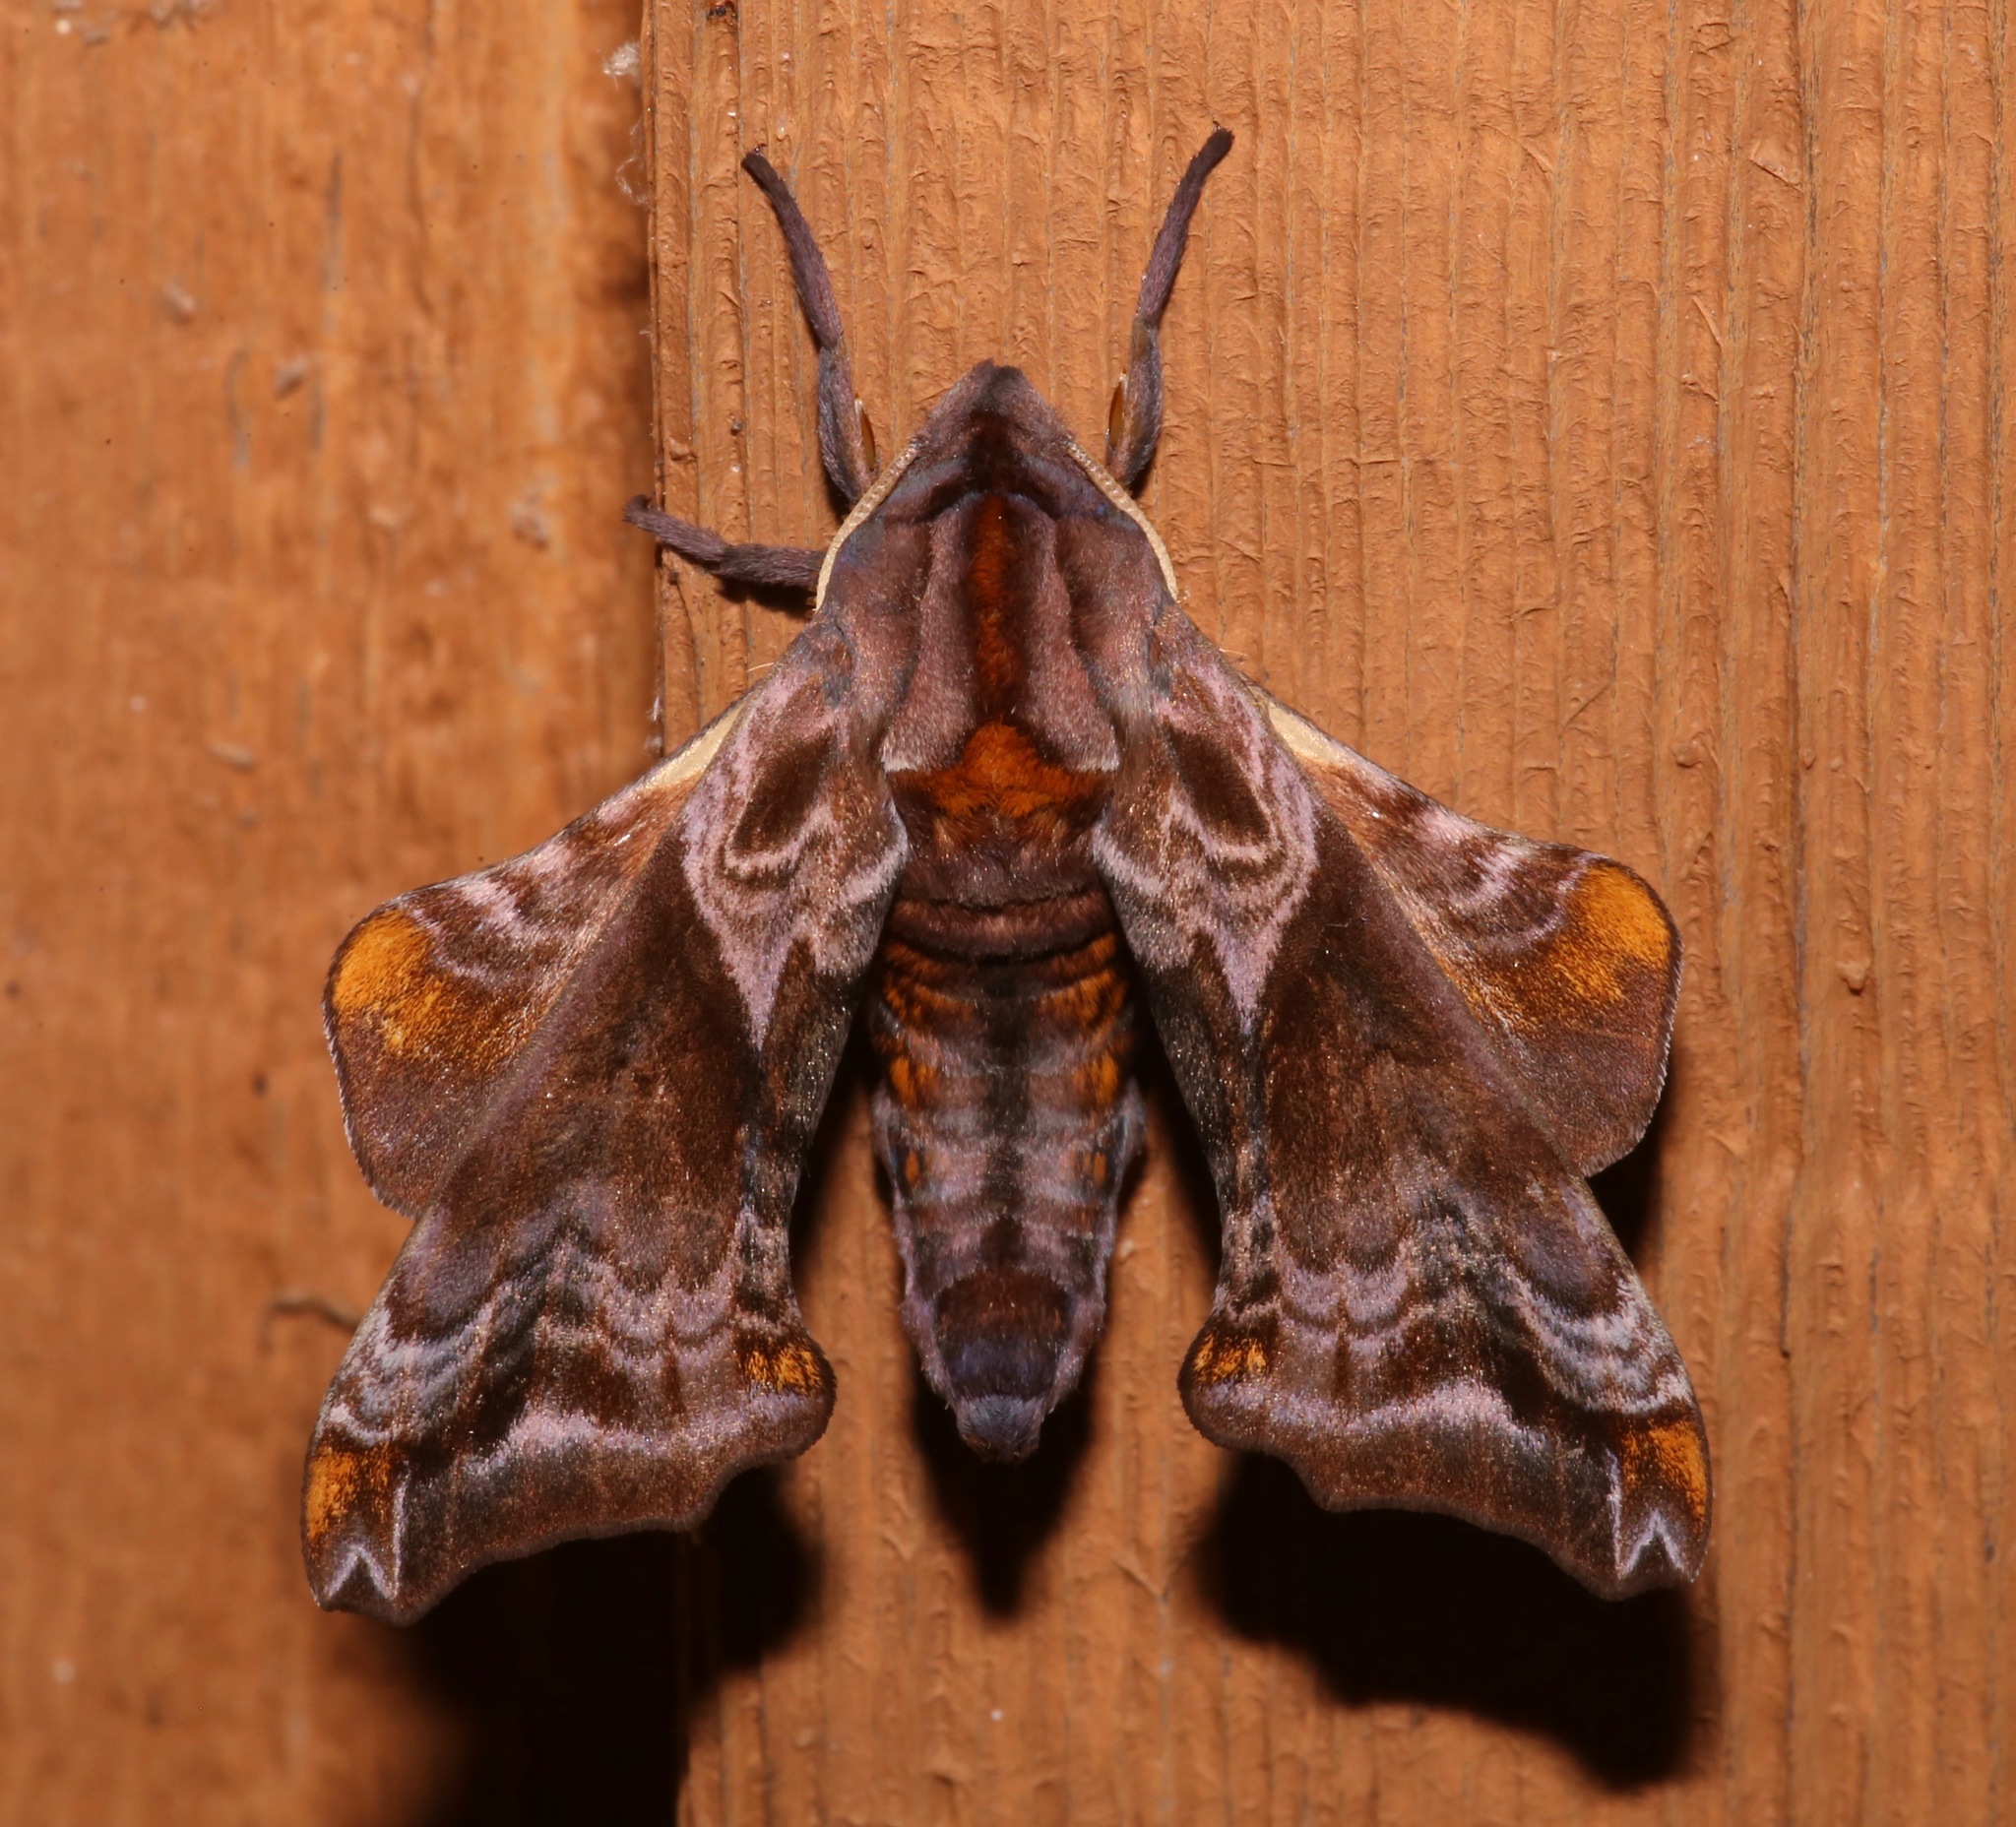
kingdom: Animalia
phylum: Arthropoda
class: Insecta
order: Lepidoptera
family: Sphingidae
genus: Paonias
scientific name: Paonias myops
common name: Small-eyed sphinx
